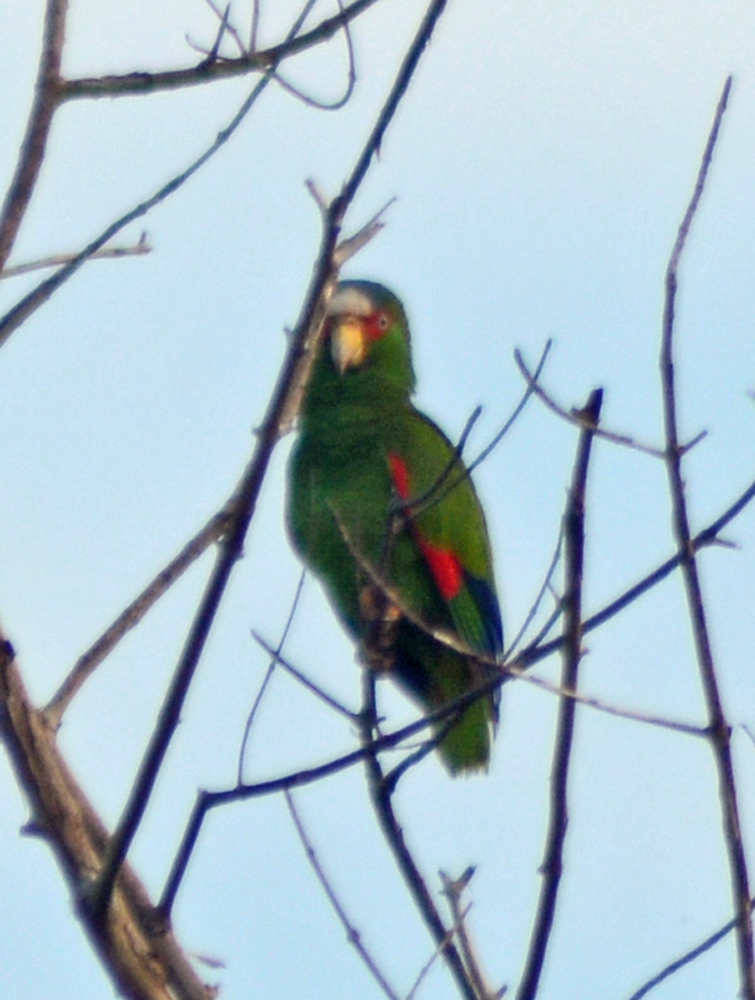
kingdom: Animalia
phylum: Chordata
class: Aves
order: Psittaciformes
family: Psittacidae
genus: Amazona
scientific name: Amazona albifrons
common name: White-fronted amazon
